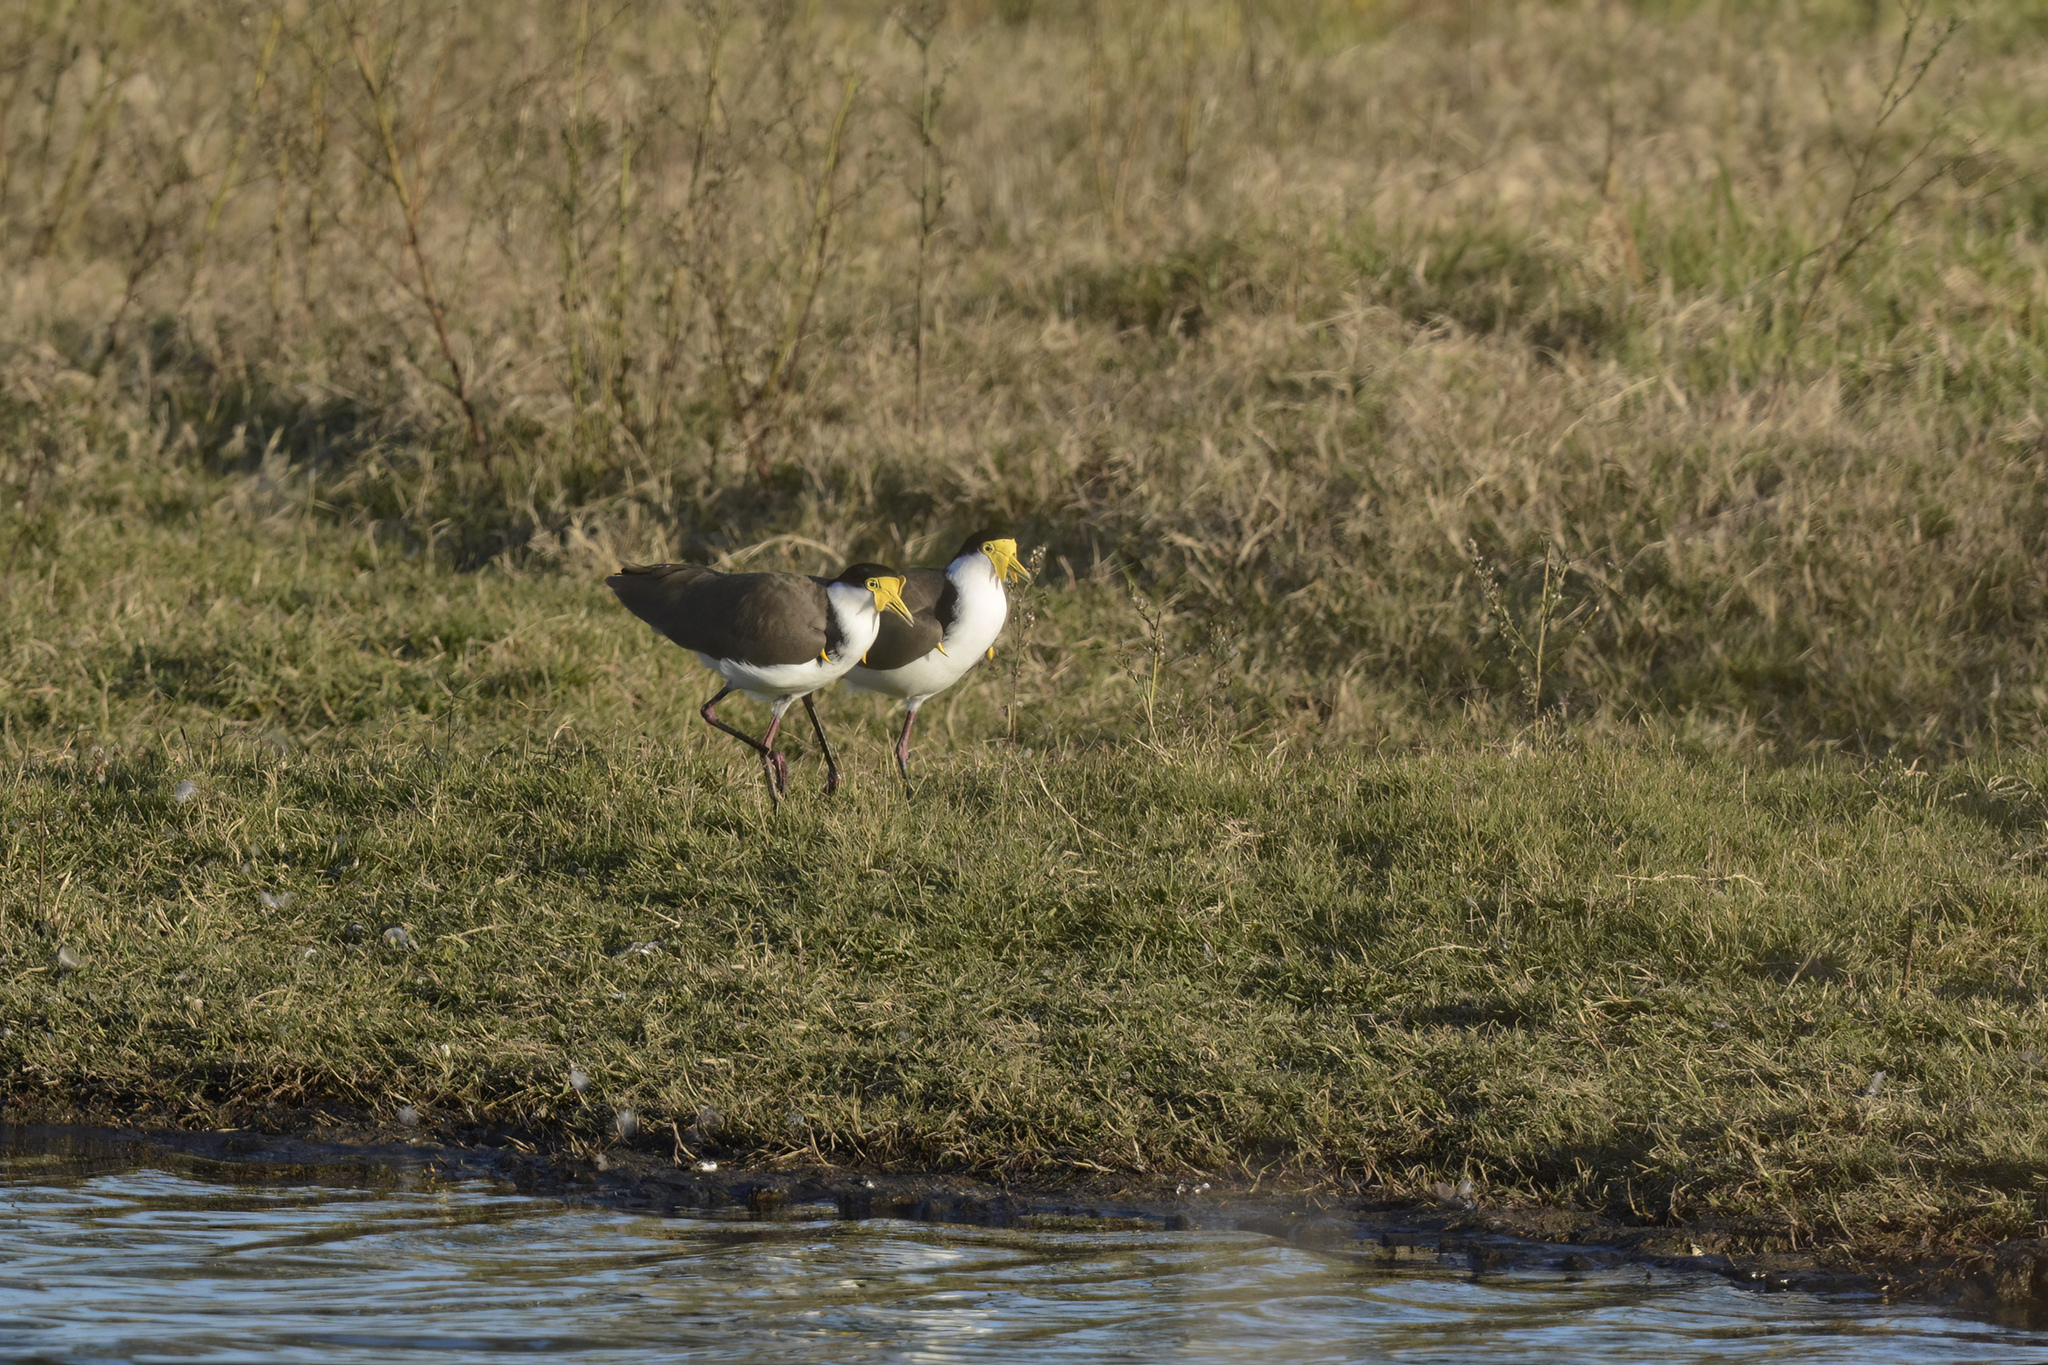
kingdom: Animalia
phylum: Chordata
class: Aves
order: Charadriiformes
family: Charadriidae
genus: Vanellus
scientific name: Vanellus miles
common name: Masked lapwing
